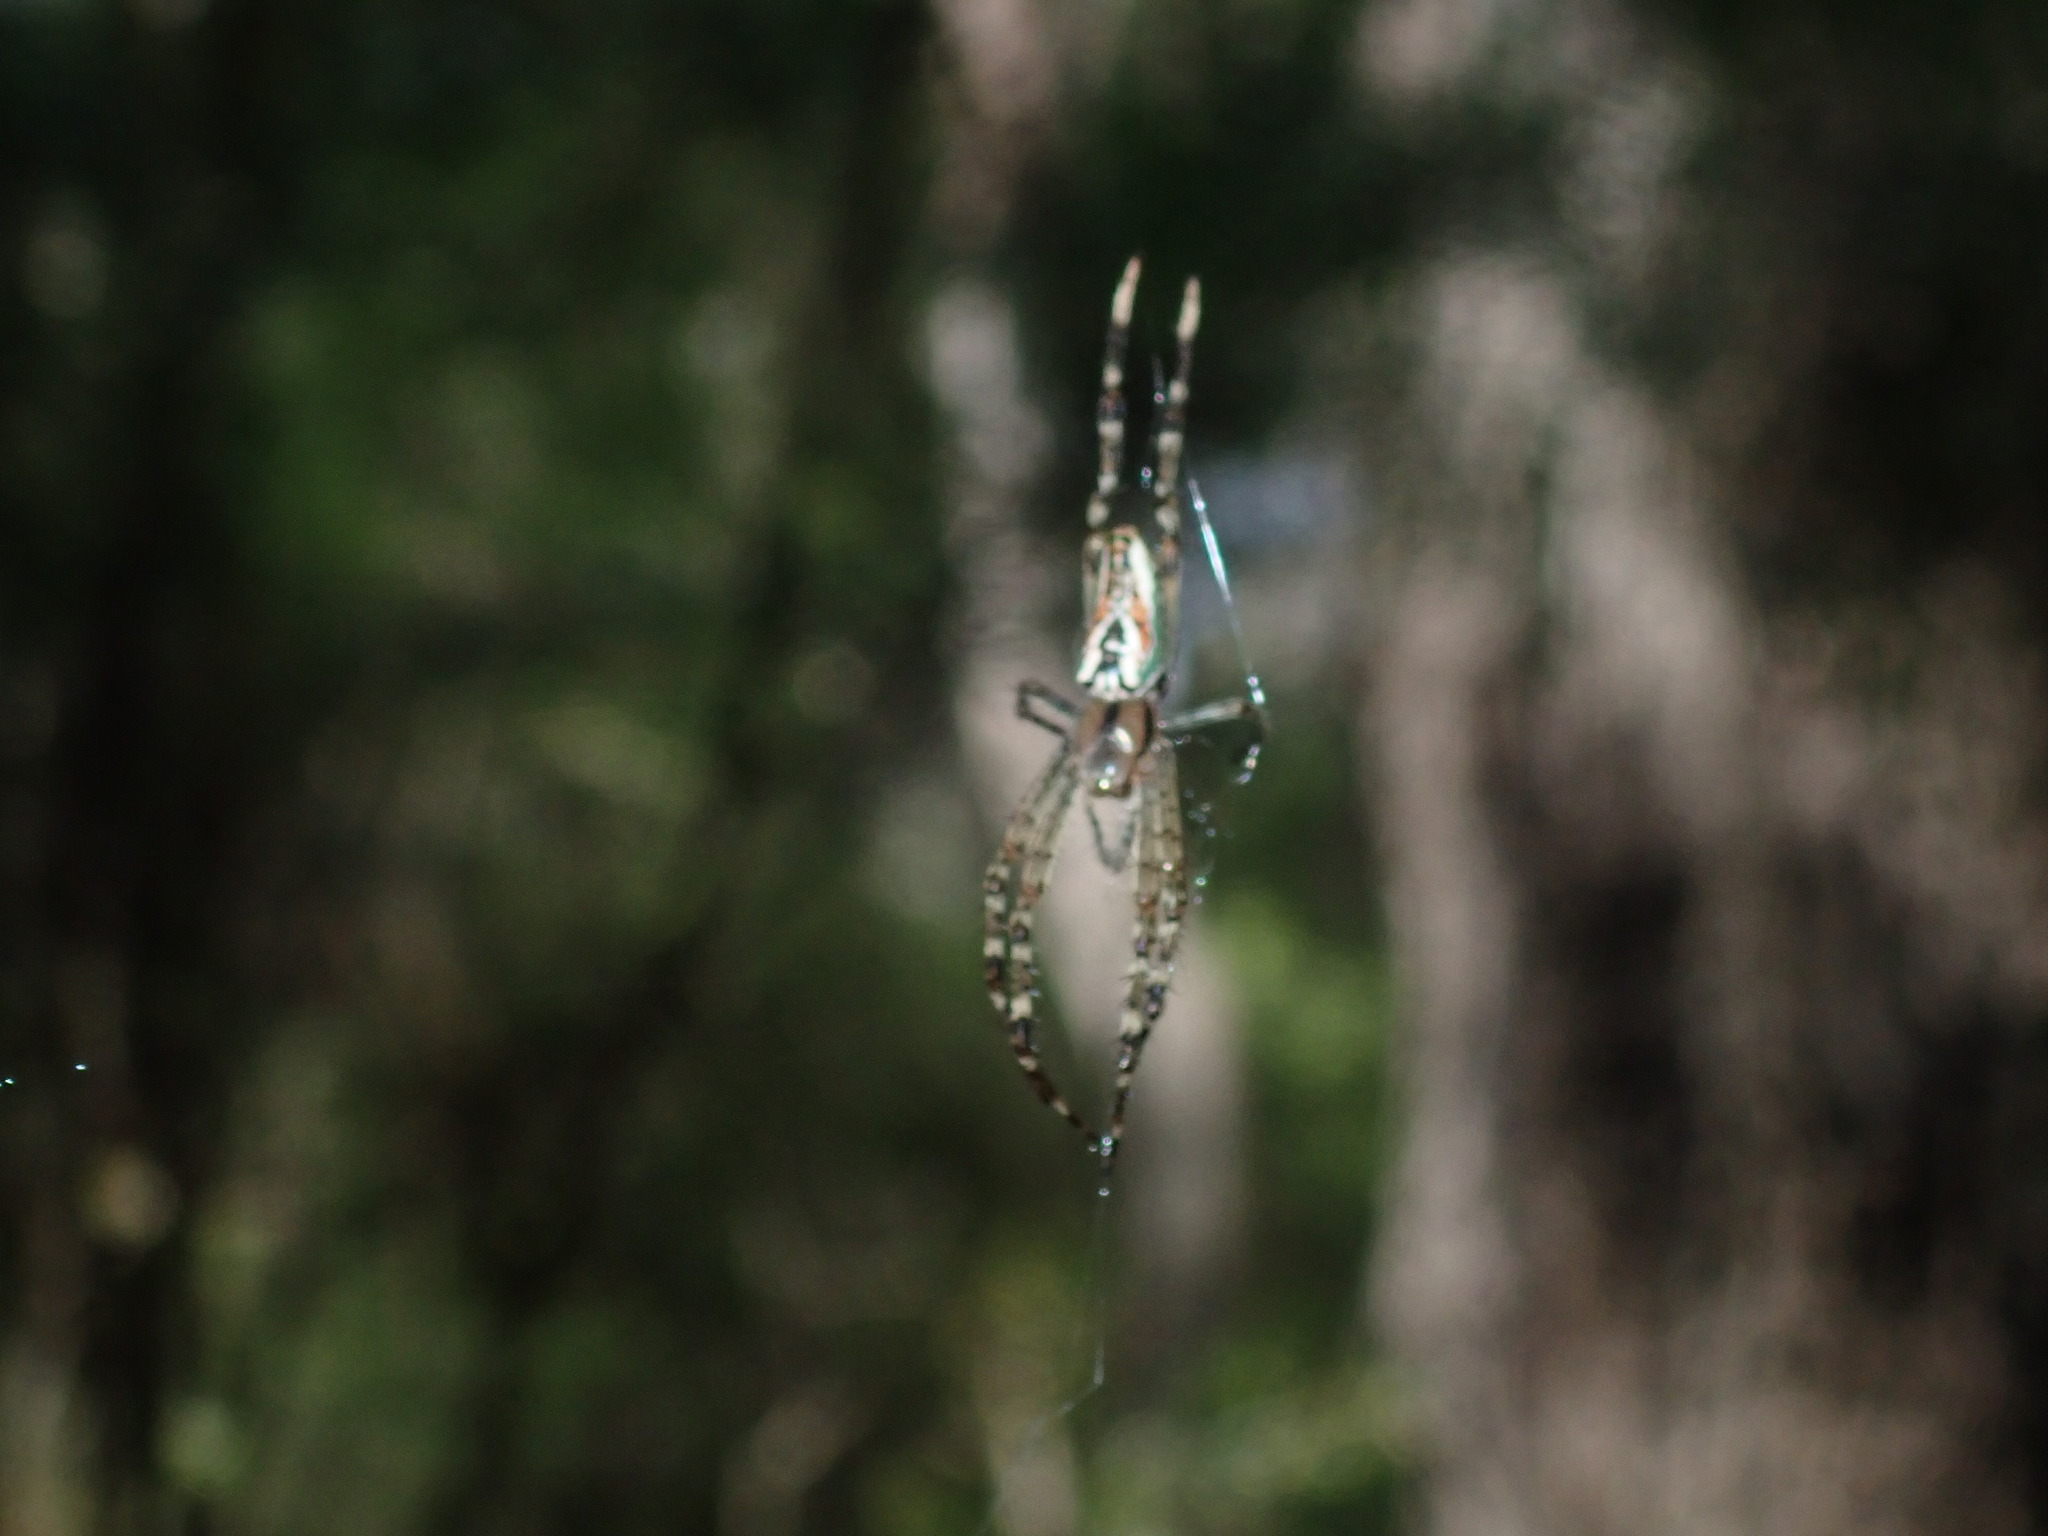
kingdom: Animalia
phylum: Arthropoda
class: Arachnida
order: Araneae
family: Araneidae
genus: Plebs
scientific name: Plebs bradleyi
